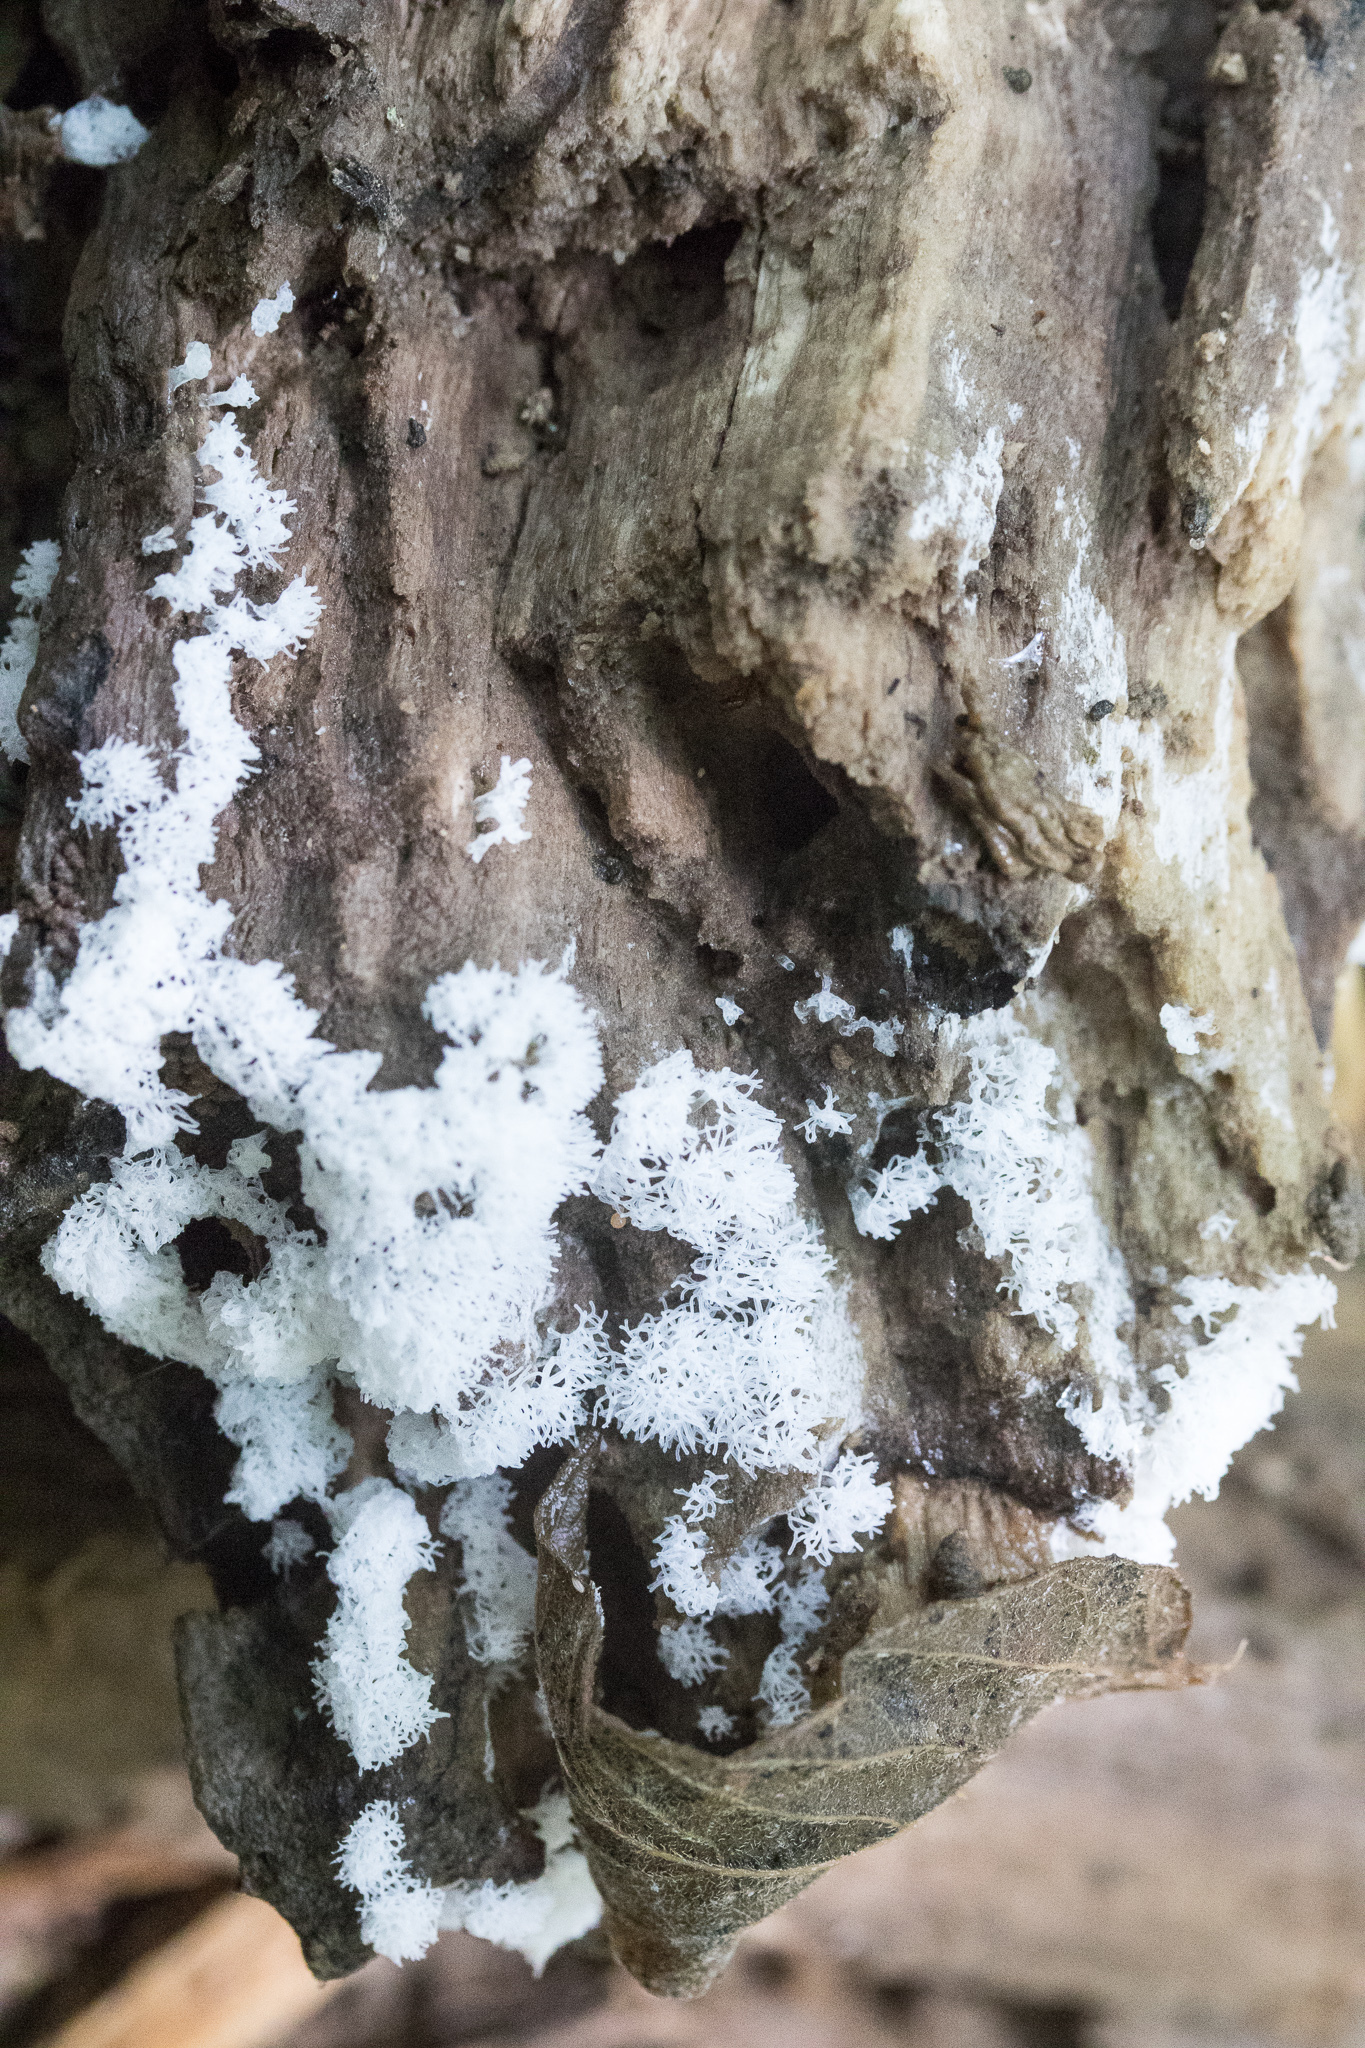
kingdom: Protozoa
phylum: Mycetozoa
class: Protosteliomycetes
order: Ceratiomyxales
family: Ceratiomyxaceae
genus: Ceratiomyxa
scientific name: Ceratiomyxa fruticulosa
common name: Honeycomb coral slime mold
